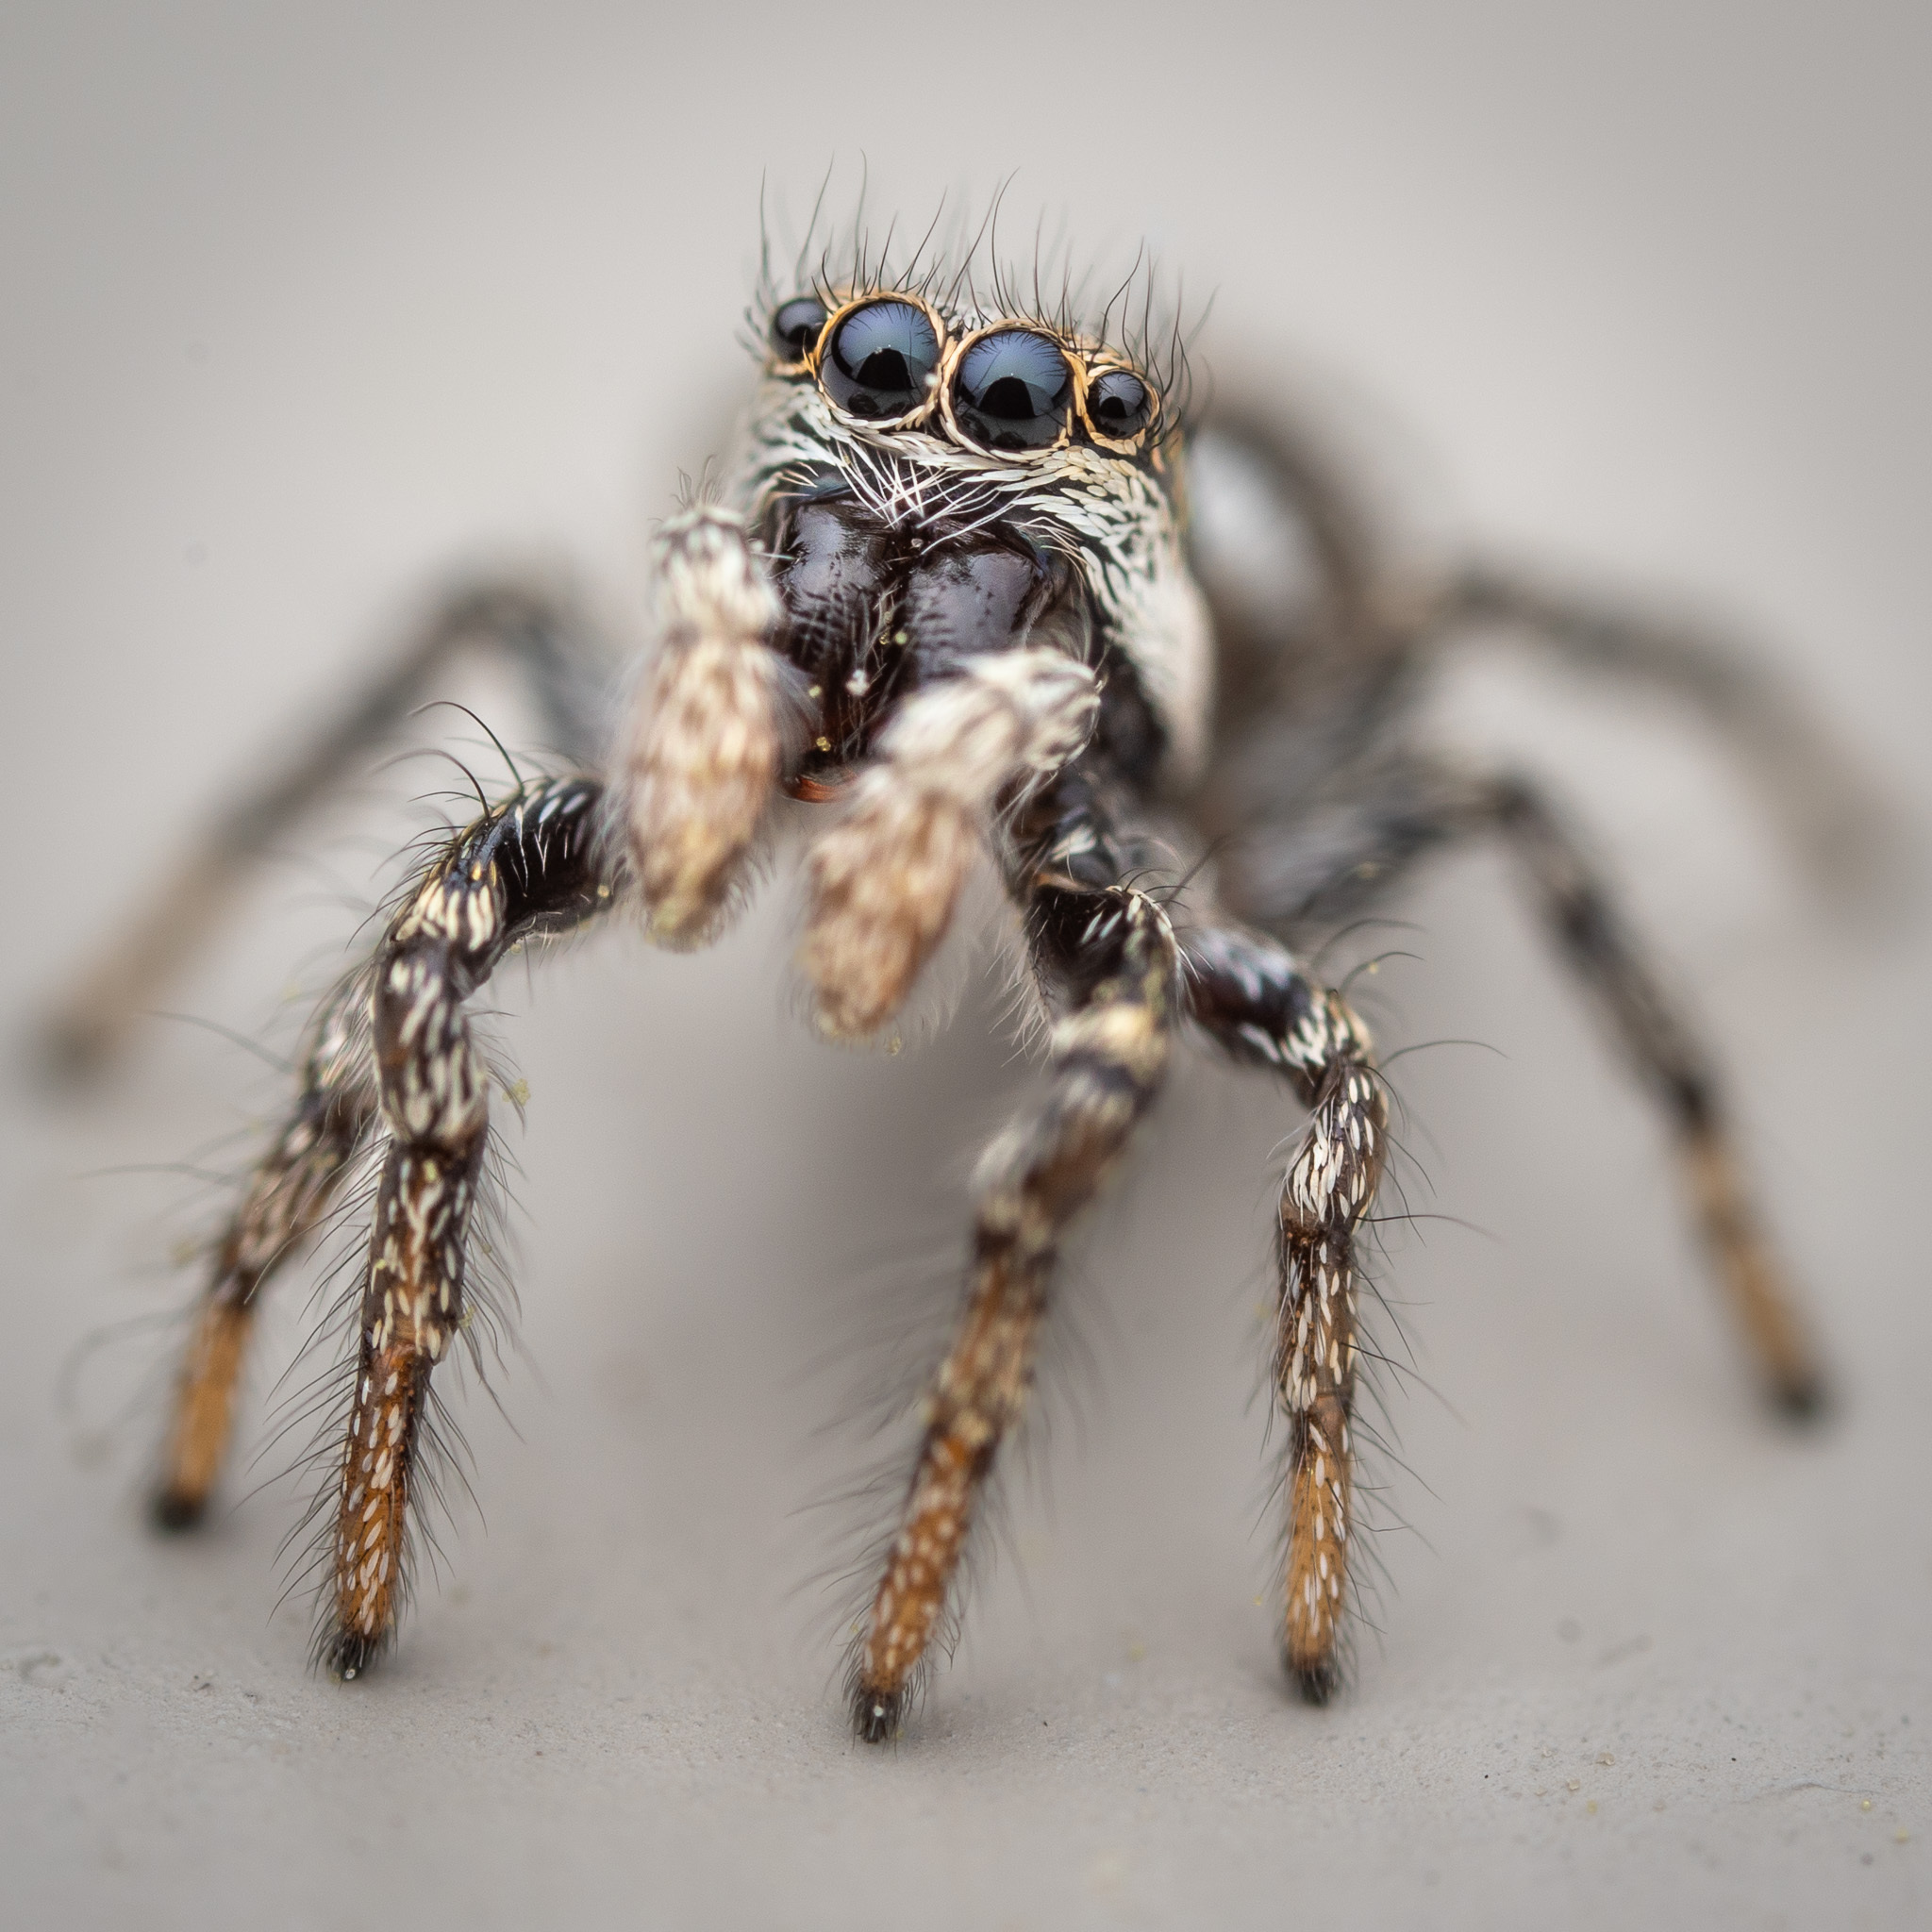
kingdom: Animalia
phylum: Arthropoda
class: Arachnida
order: Araneae
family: Salticidae
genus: Salticus
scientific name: Salticus scenicus
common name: Zebra jumper
